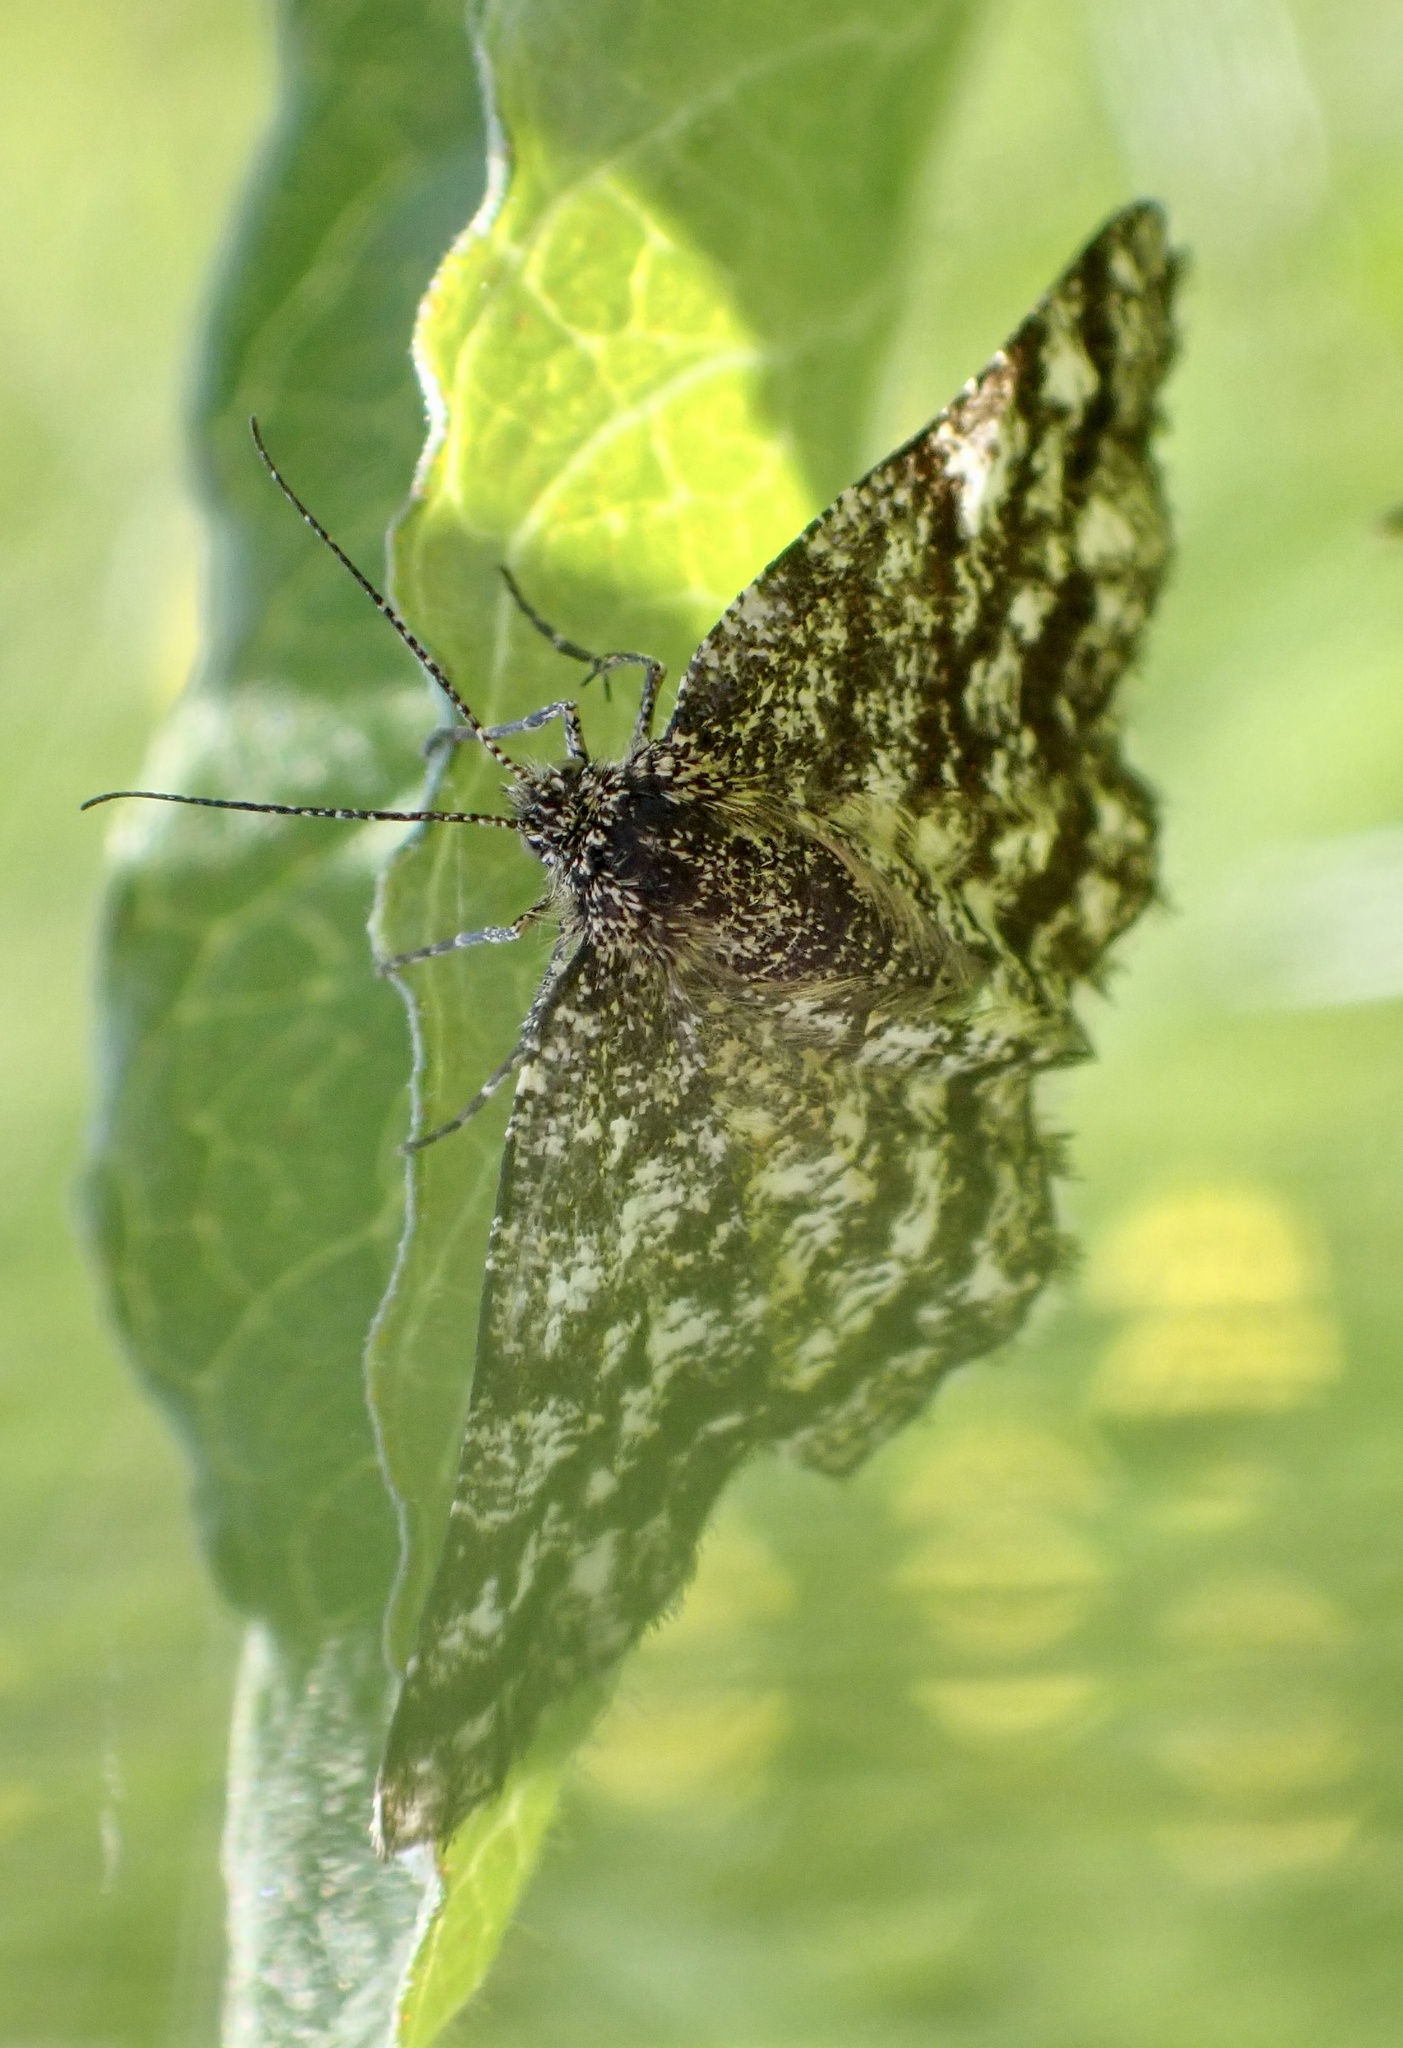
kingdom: Animalia
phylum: Arthropoda
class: Insecta
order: Lepidoptera
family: Geometridae
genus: Ematurga
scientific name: Ematurga atomaria
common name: Common heath
